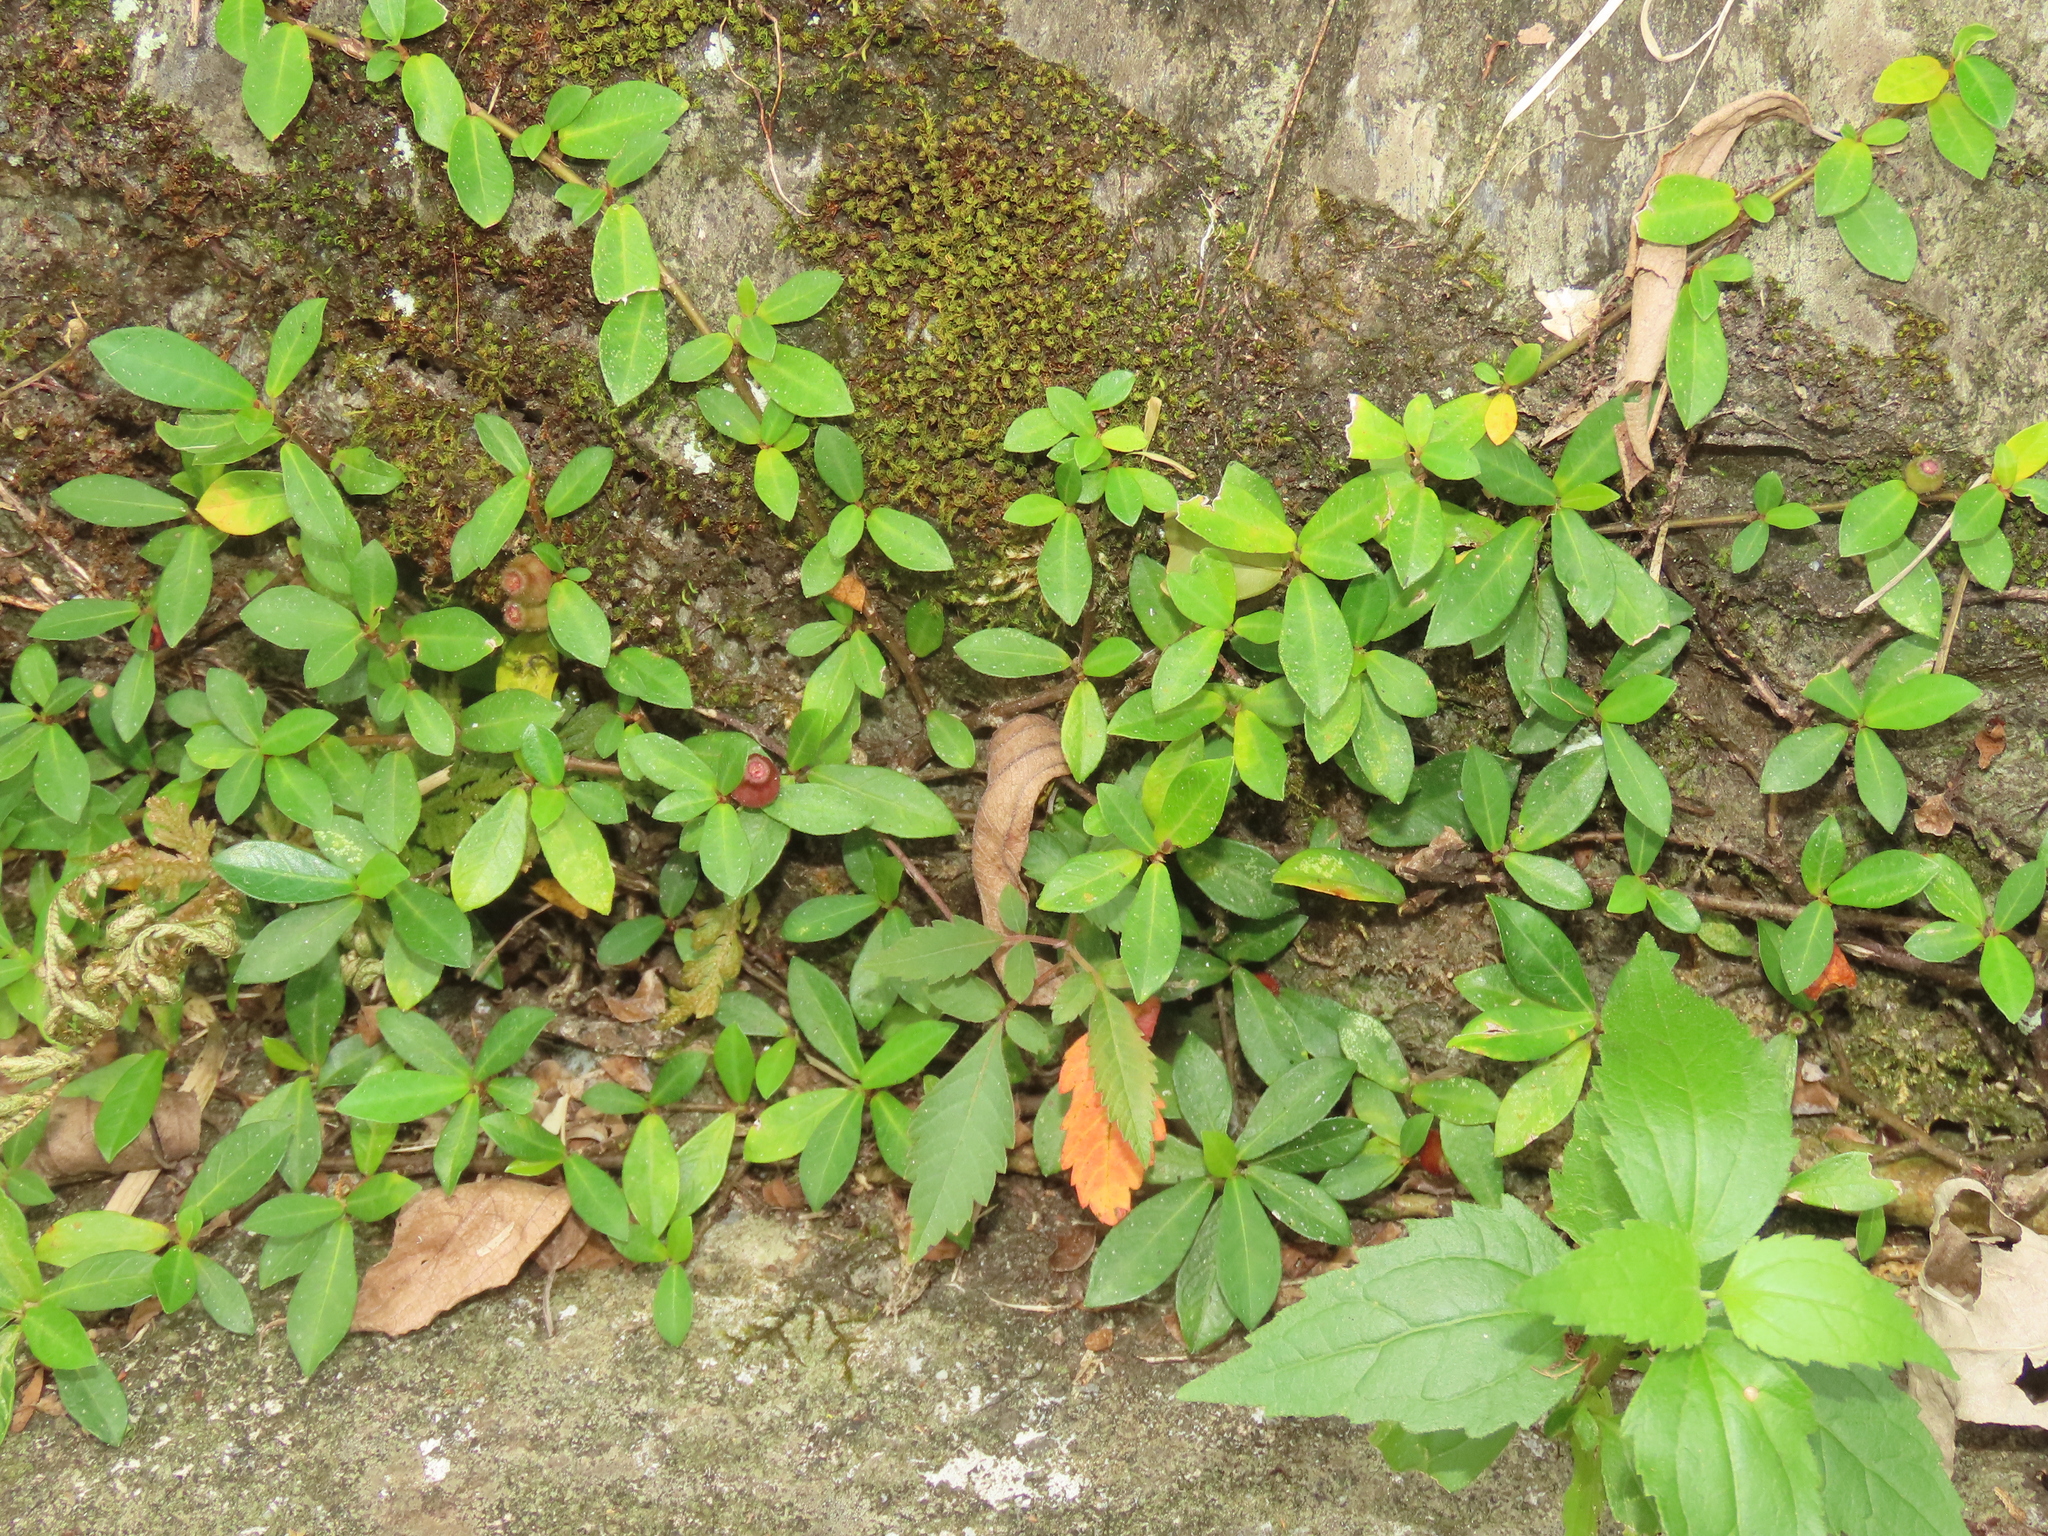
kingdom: Plantae
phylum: Tracheophyta
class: Magnoliopsida
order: Rosales
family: Moraceae
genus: Ficus
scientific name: Ficus vaccinioides
